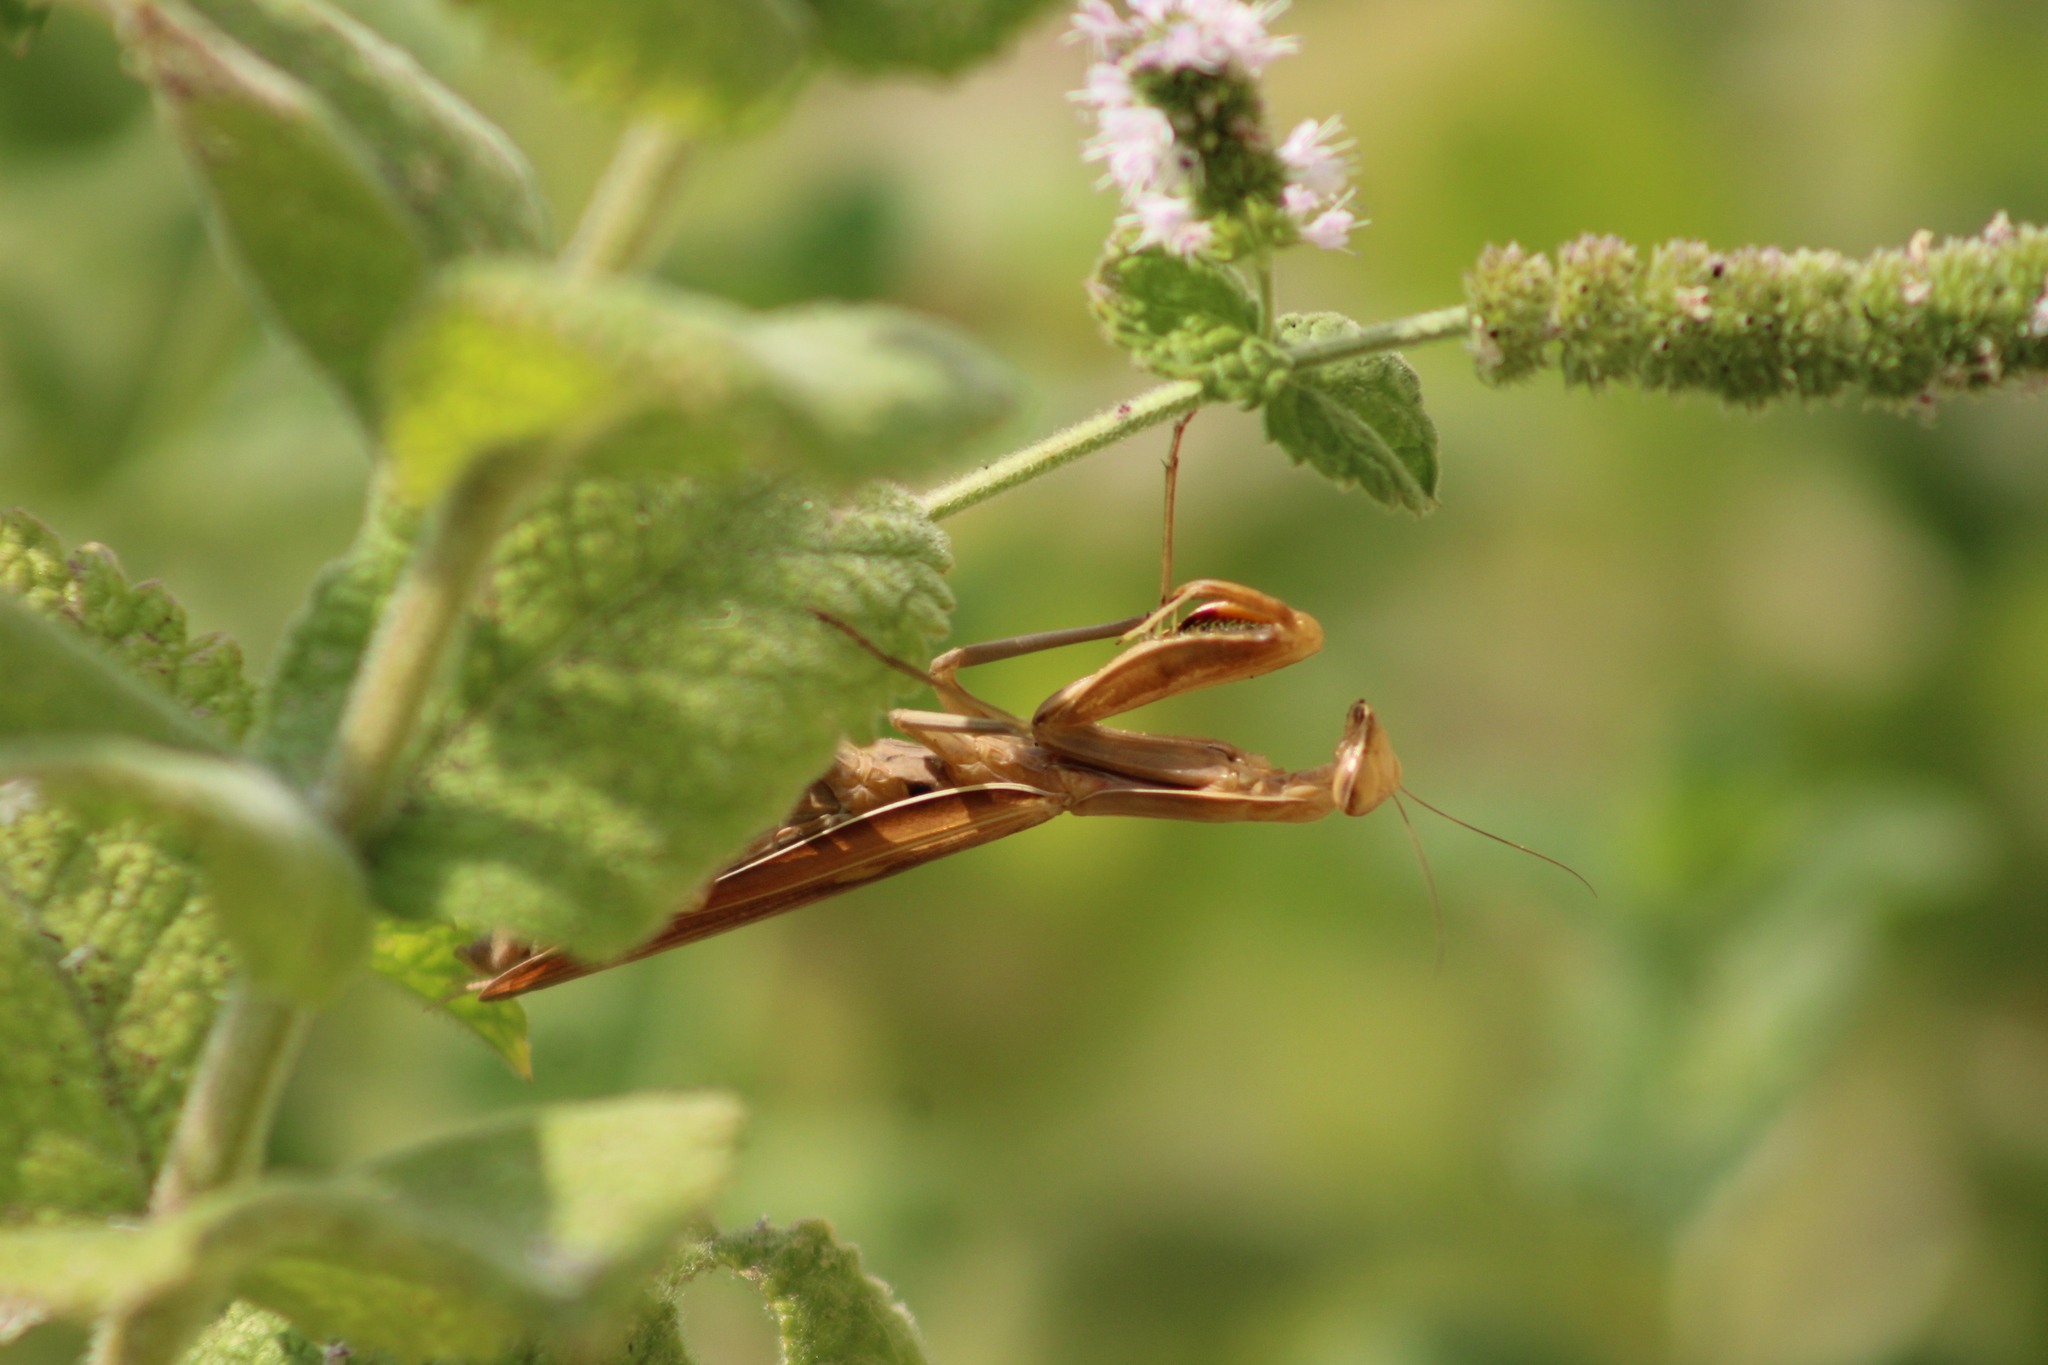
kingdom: Animalia
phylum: Arthropoda
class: Insecta
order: Mantodea
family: Mantidae
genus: Mantis
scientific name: Mantis religiosa
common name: Praying mantis
